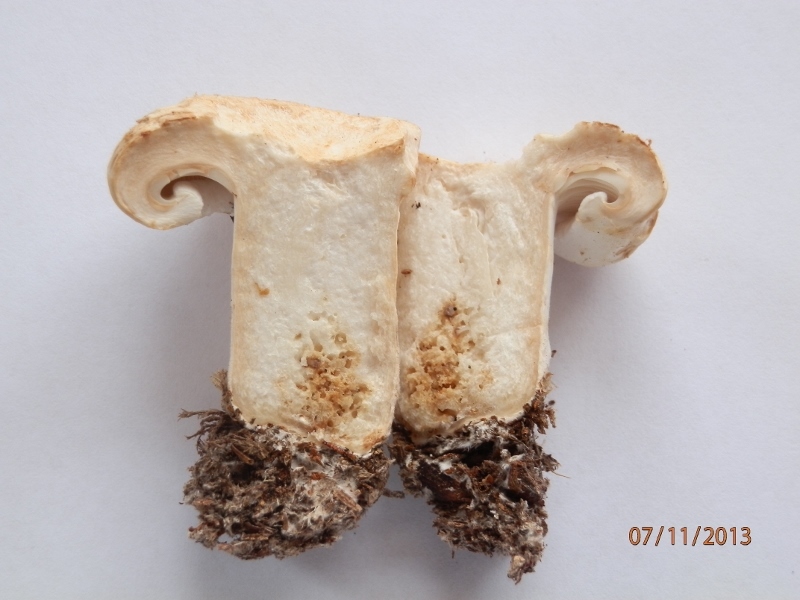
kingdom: Fungi
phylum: Basidiomycota
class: Agaricomycetes
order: Russulales
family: Russulaceae
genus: Lactifluus
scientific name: Lactifluus
